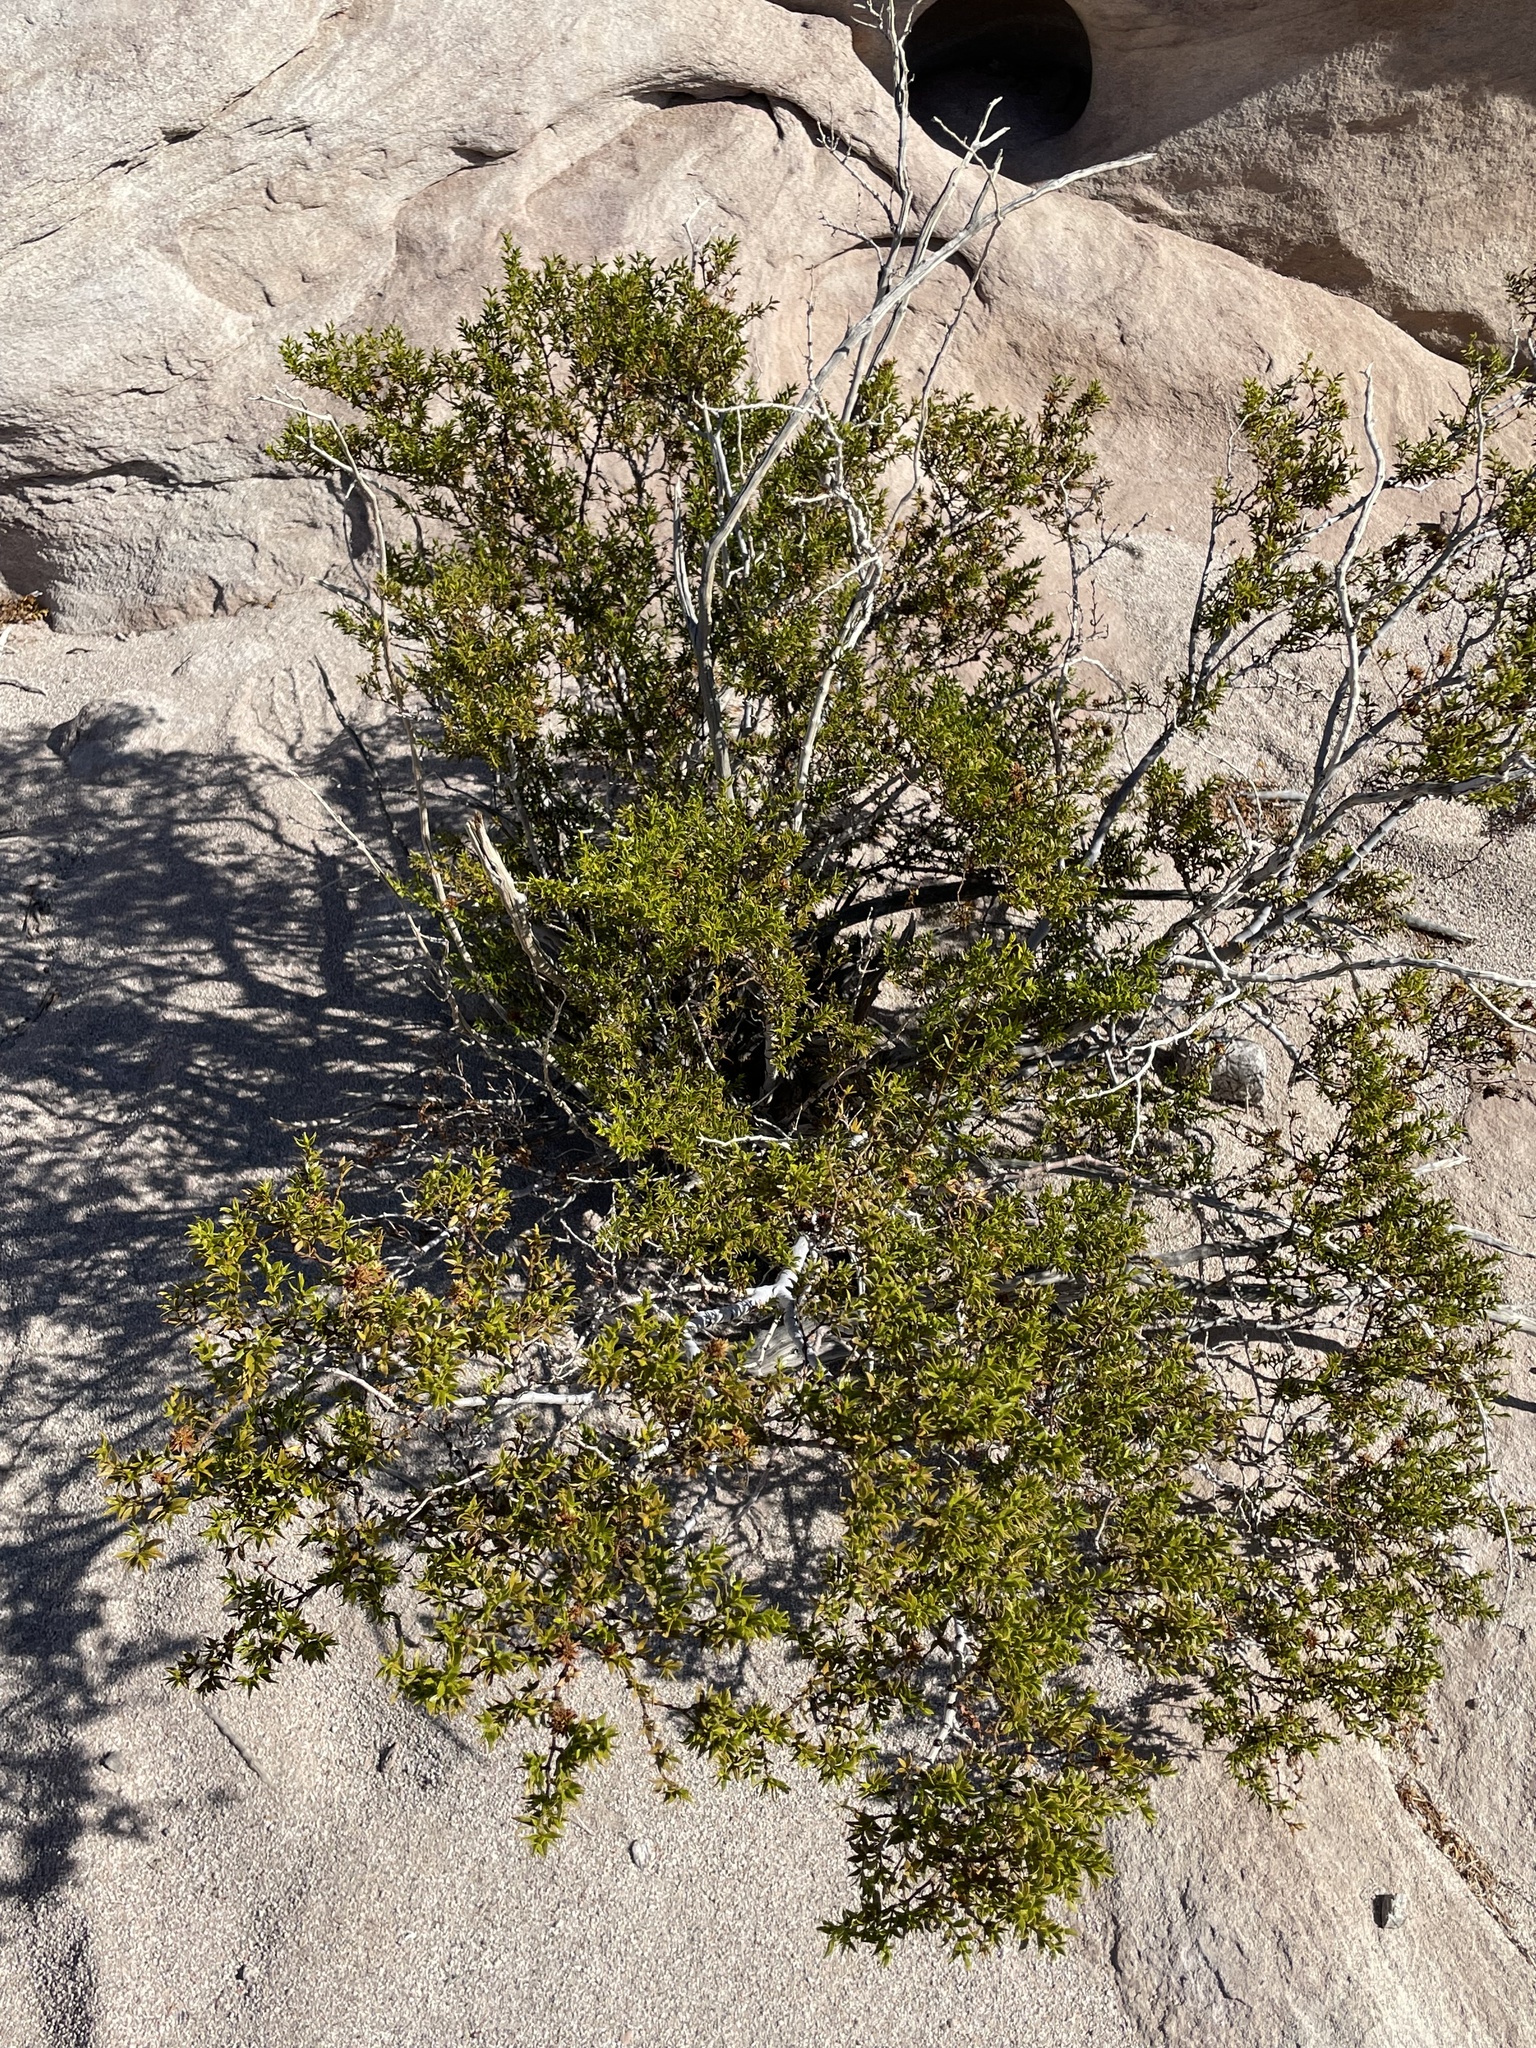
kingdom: Plantae
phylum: Tracheophyta
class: Magnoliopsida
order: Zygophyllales
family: Zygophyllaceae
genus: Larrea
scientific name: Larrea tridentata
